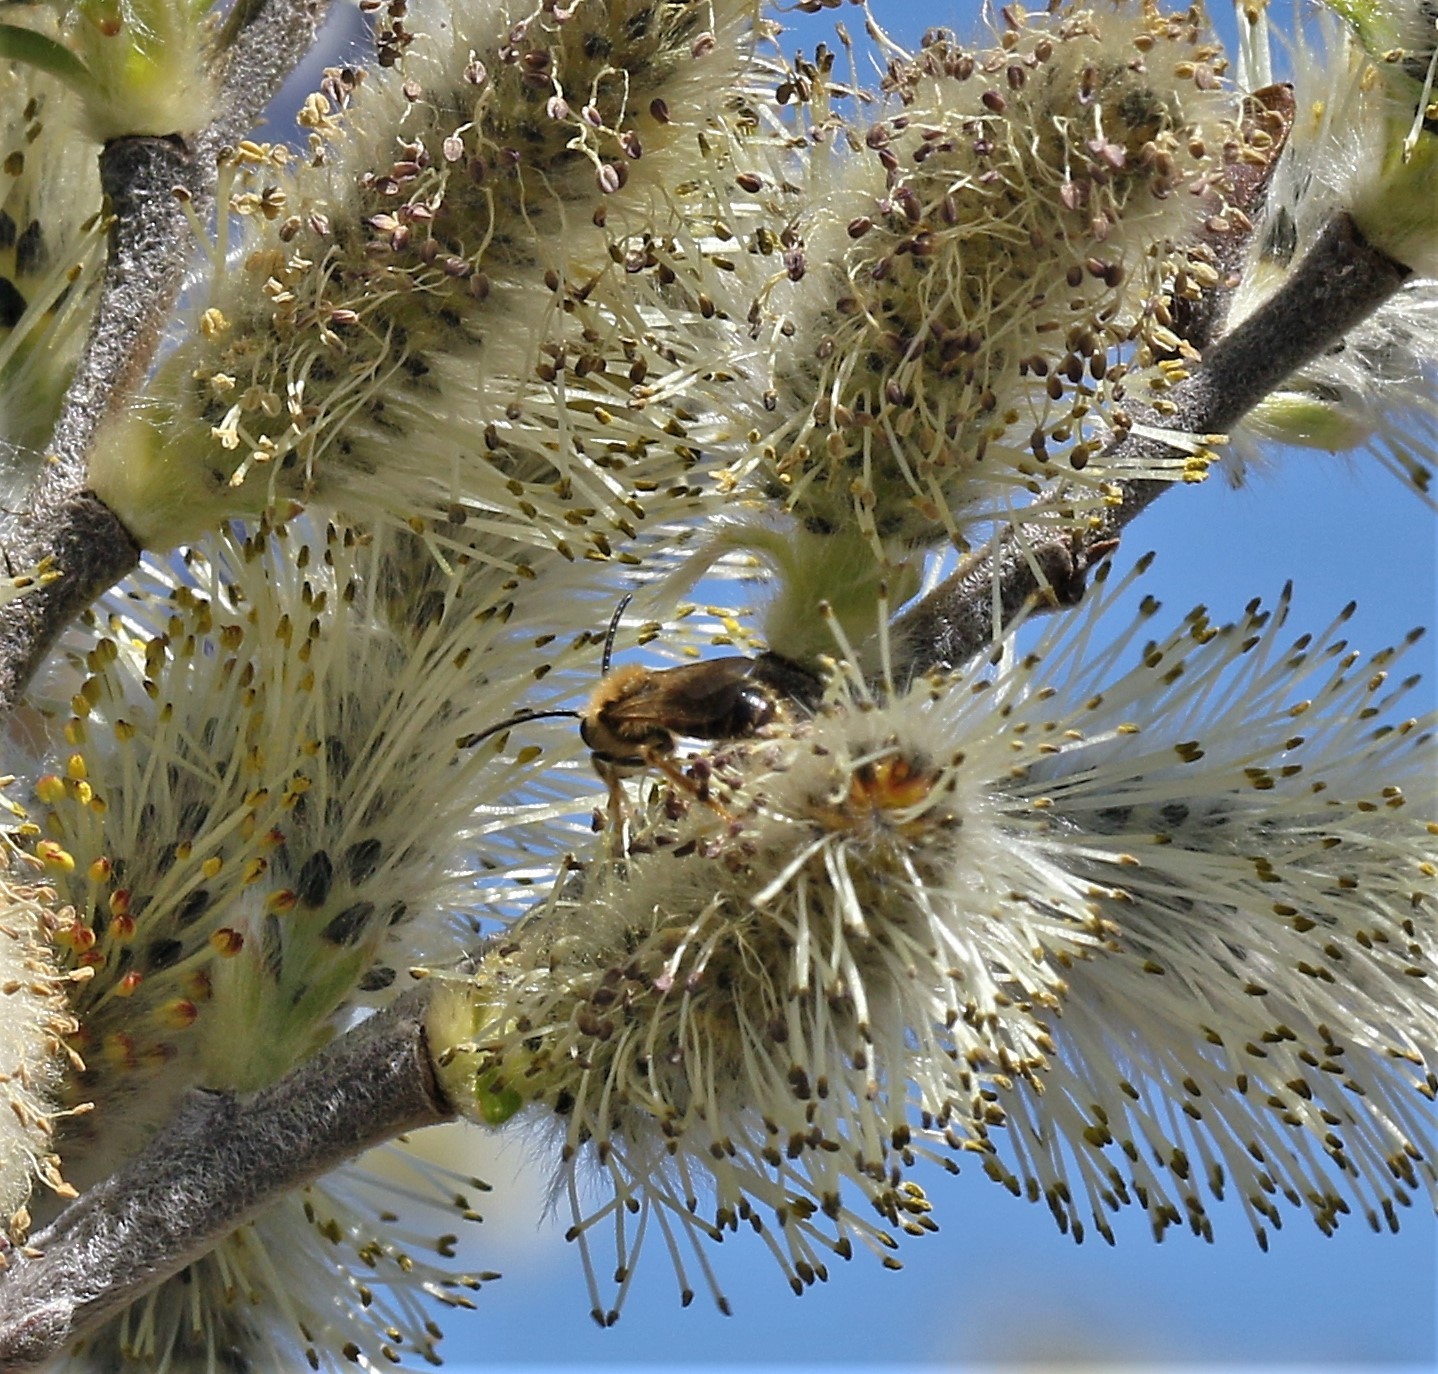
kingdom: Animalia
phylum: Arthropoda
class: Insecta
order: Hymenoptera
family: Andrenidae
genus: Andrena
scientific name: Andrena
